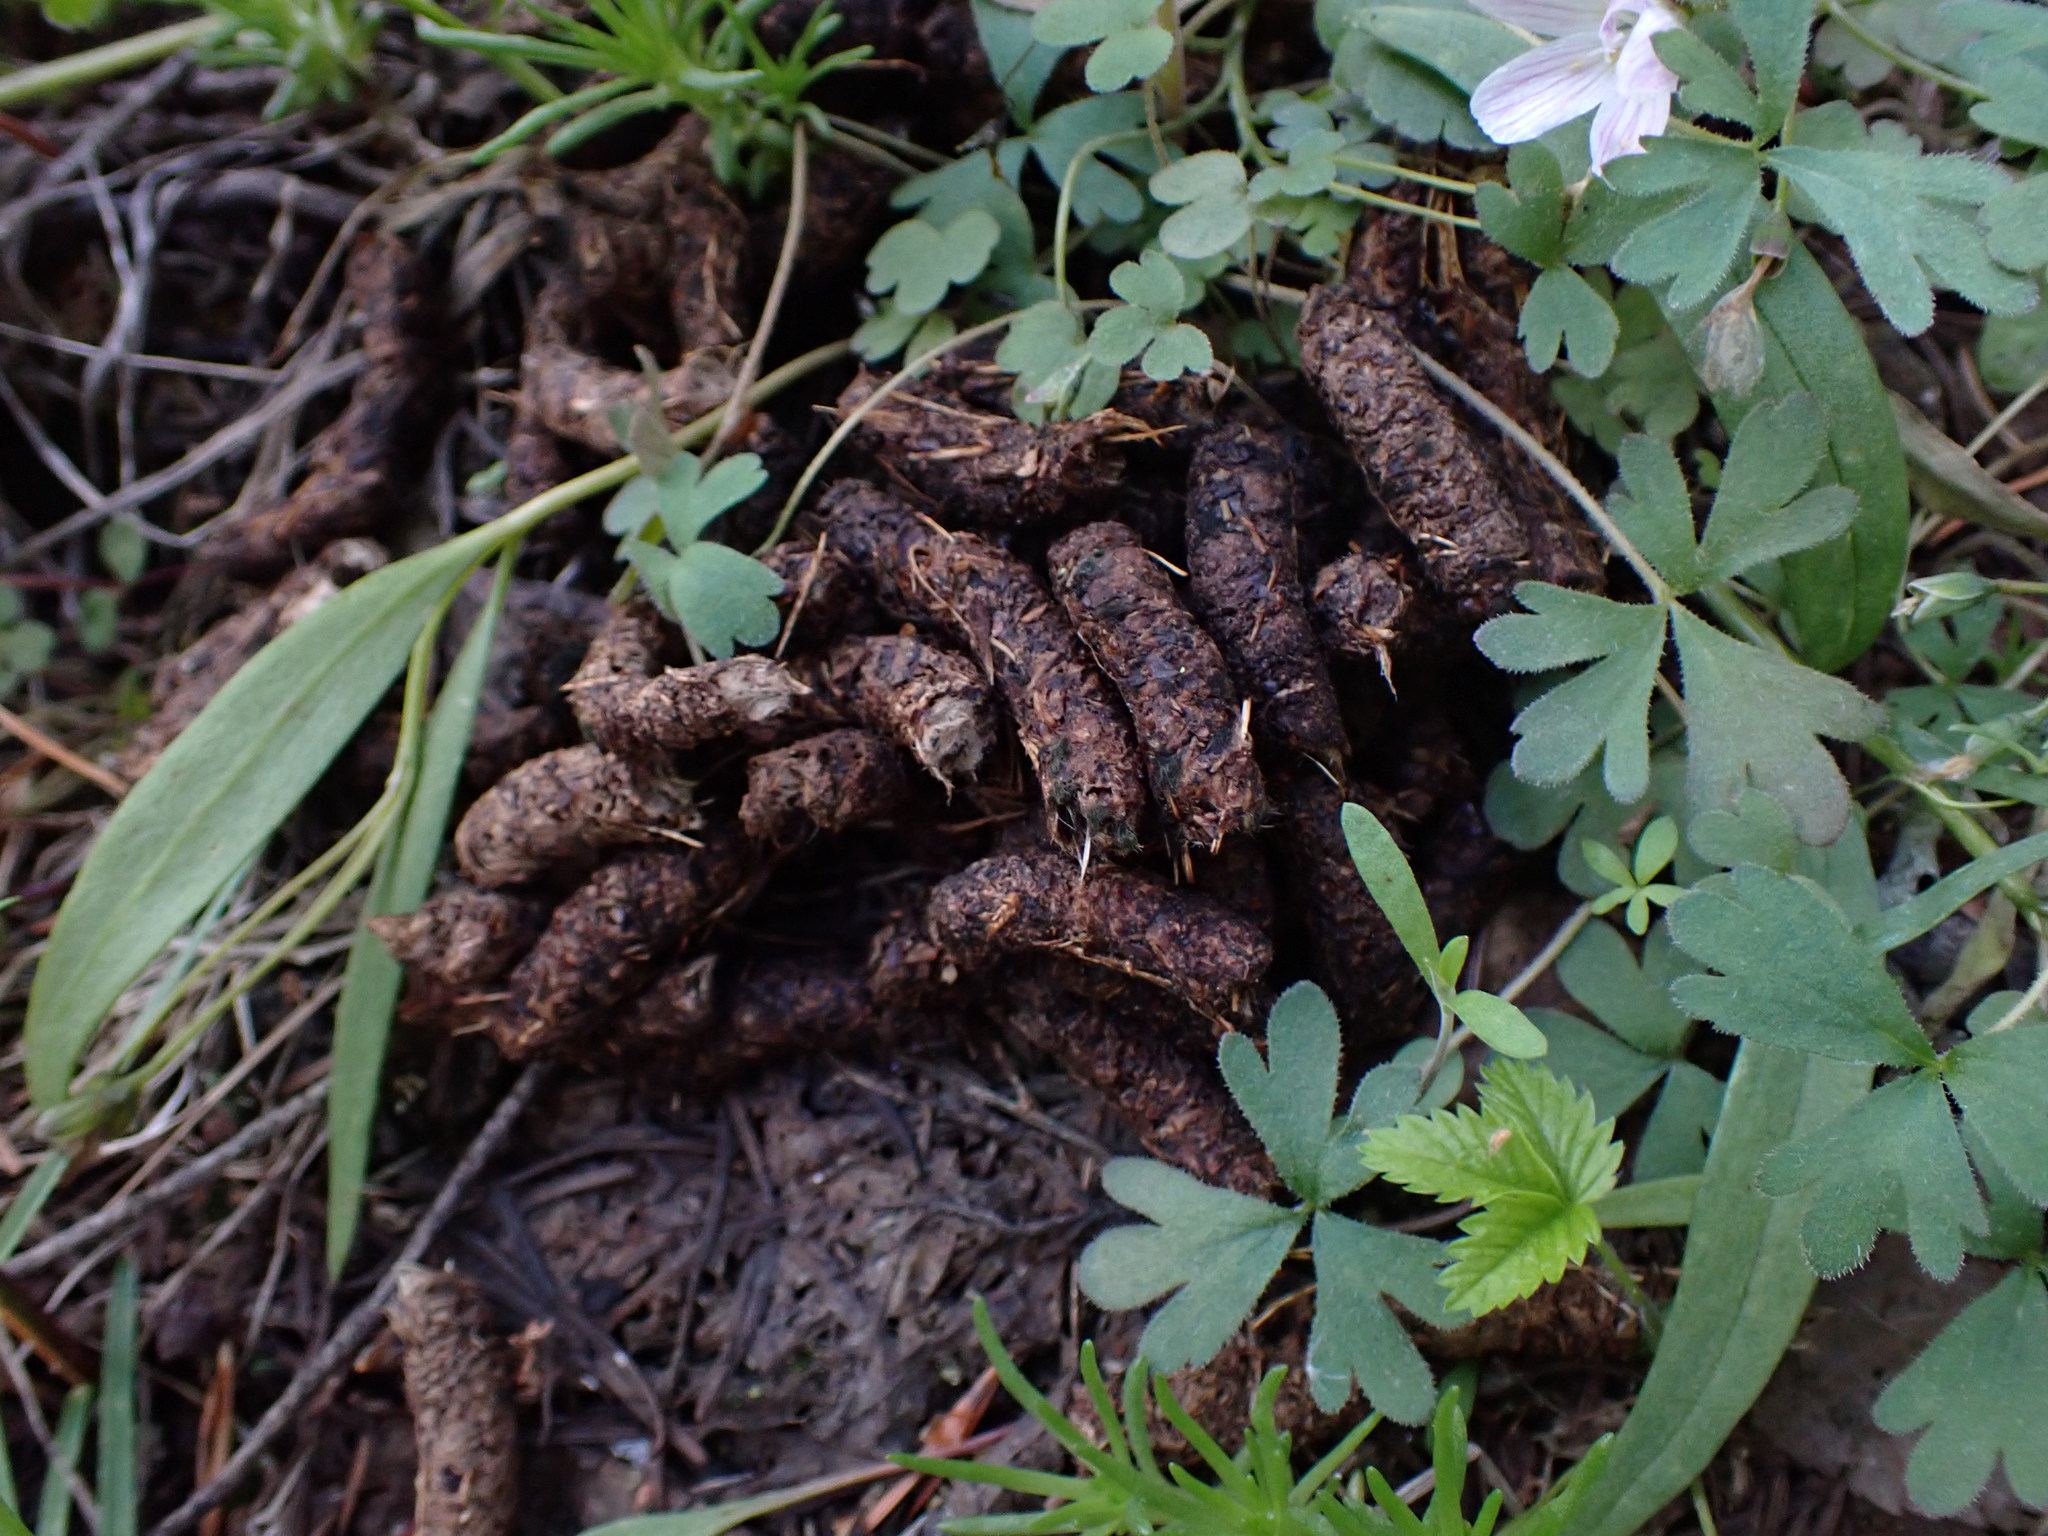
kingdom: Animalia
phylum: Chordata
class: Aves
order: Galliformes
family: Phasianidae
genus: Bonasa
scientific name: Bonasa umbellus
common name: Ruffed grouse
